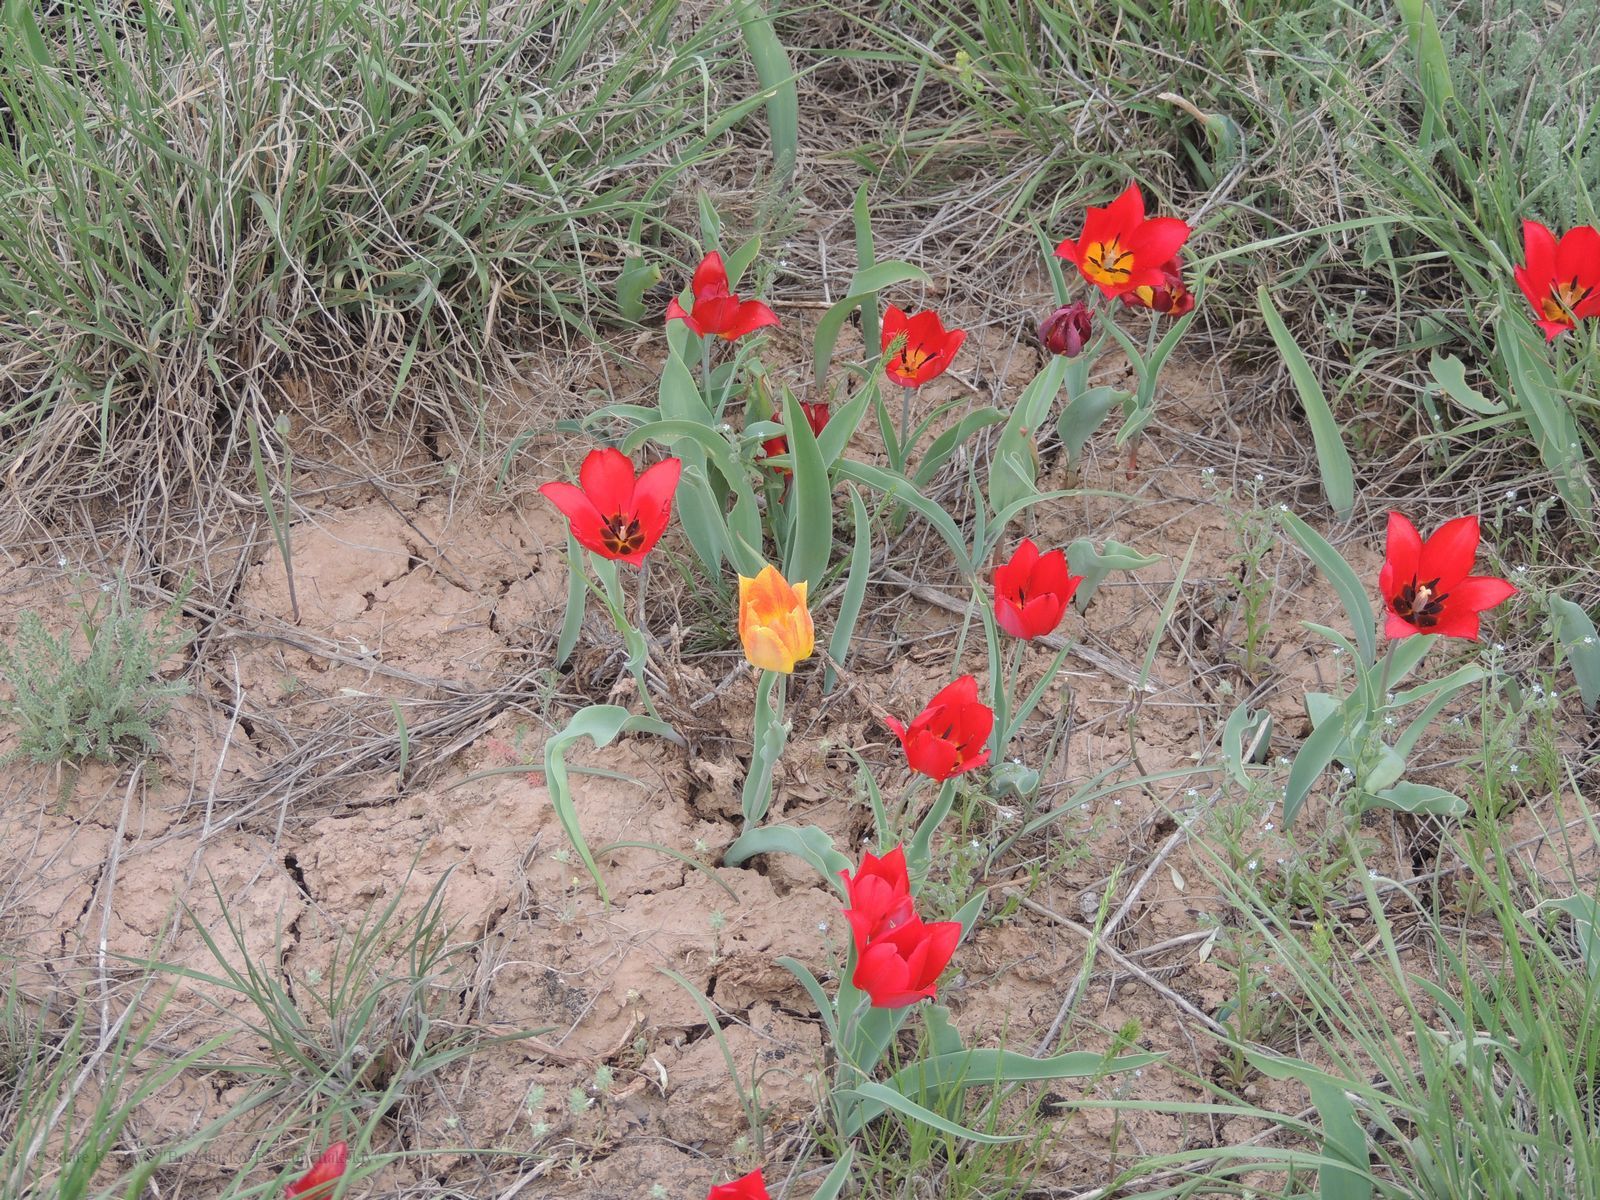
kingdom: Plantae
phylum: Tracheophyta
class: Liliopsida
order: Liliales
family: Liliaceae
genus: Tulipa
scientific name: Tulipa suaveolens
